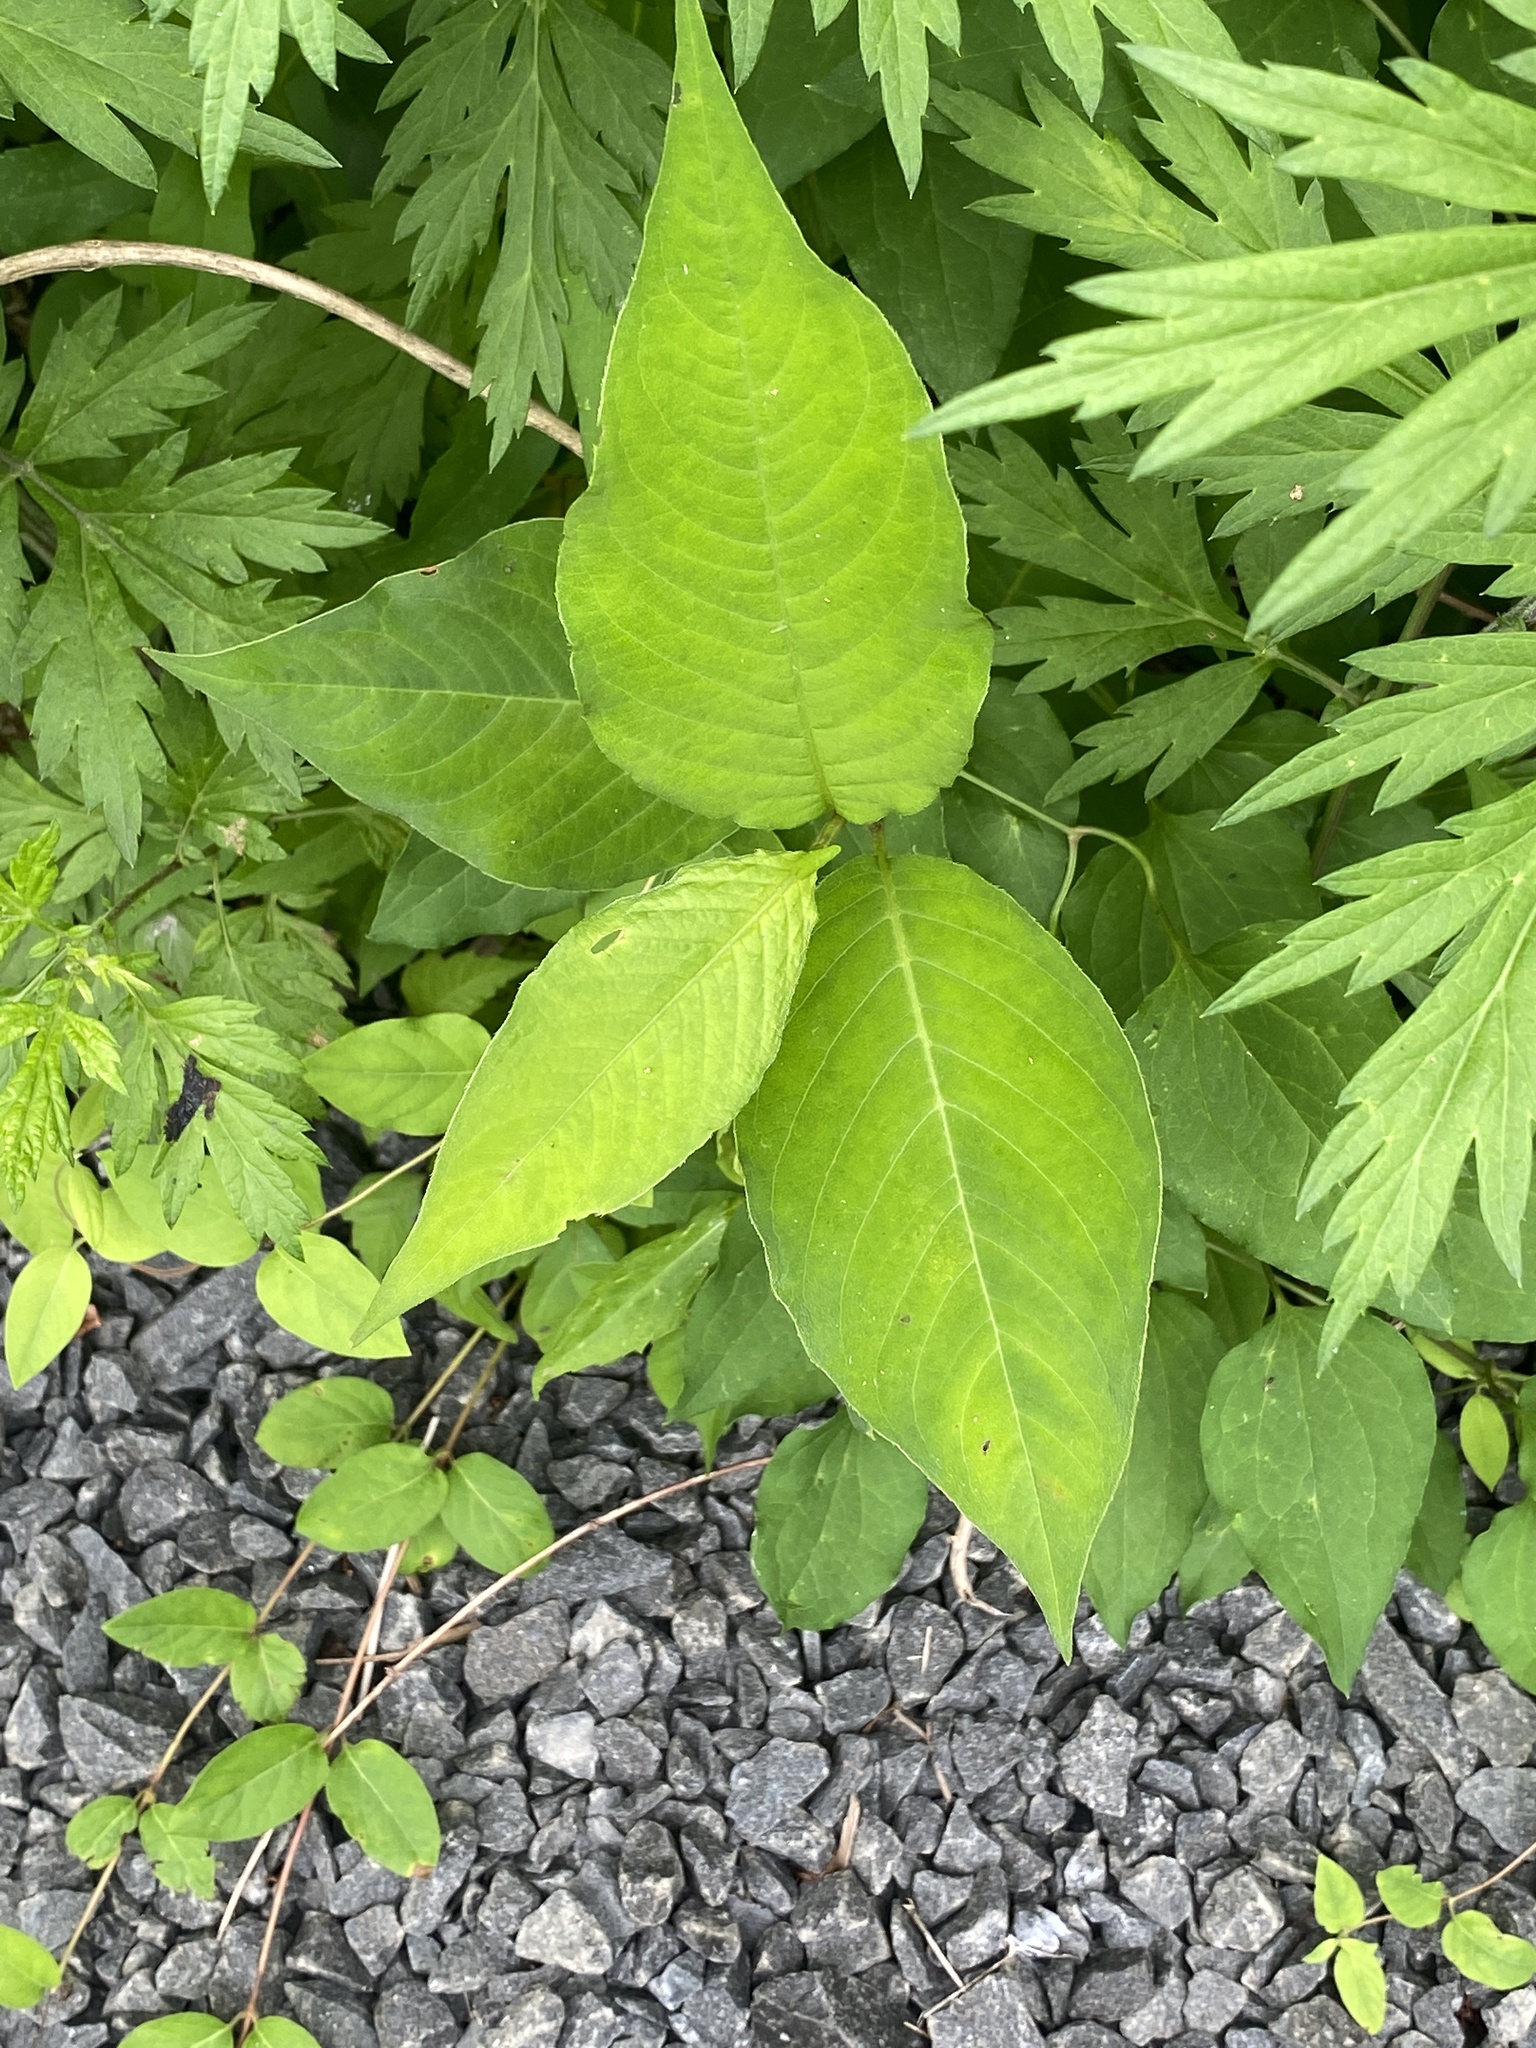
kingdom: Plantae
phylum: Tracheophyta
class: Magnoliopsida
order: Caryophyllales
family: Polygonaceae
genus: Persicaria
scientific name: Persicaria virginiana
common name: Jumpseed
